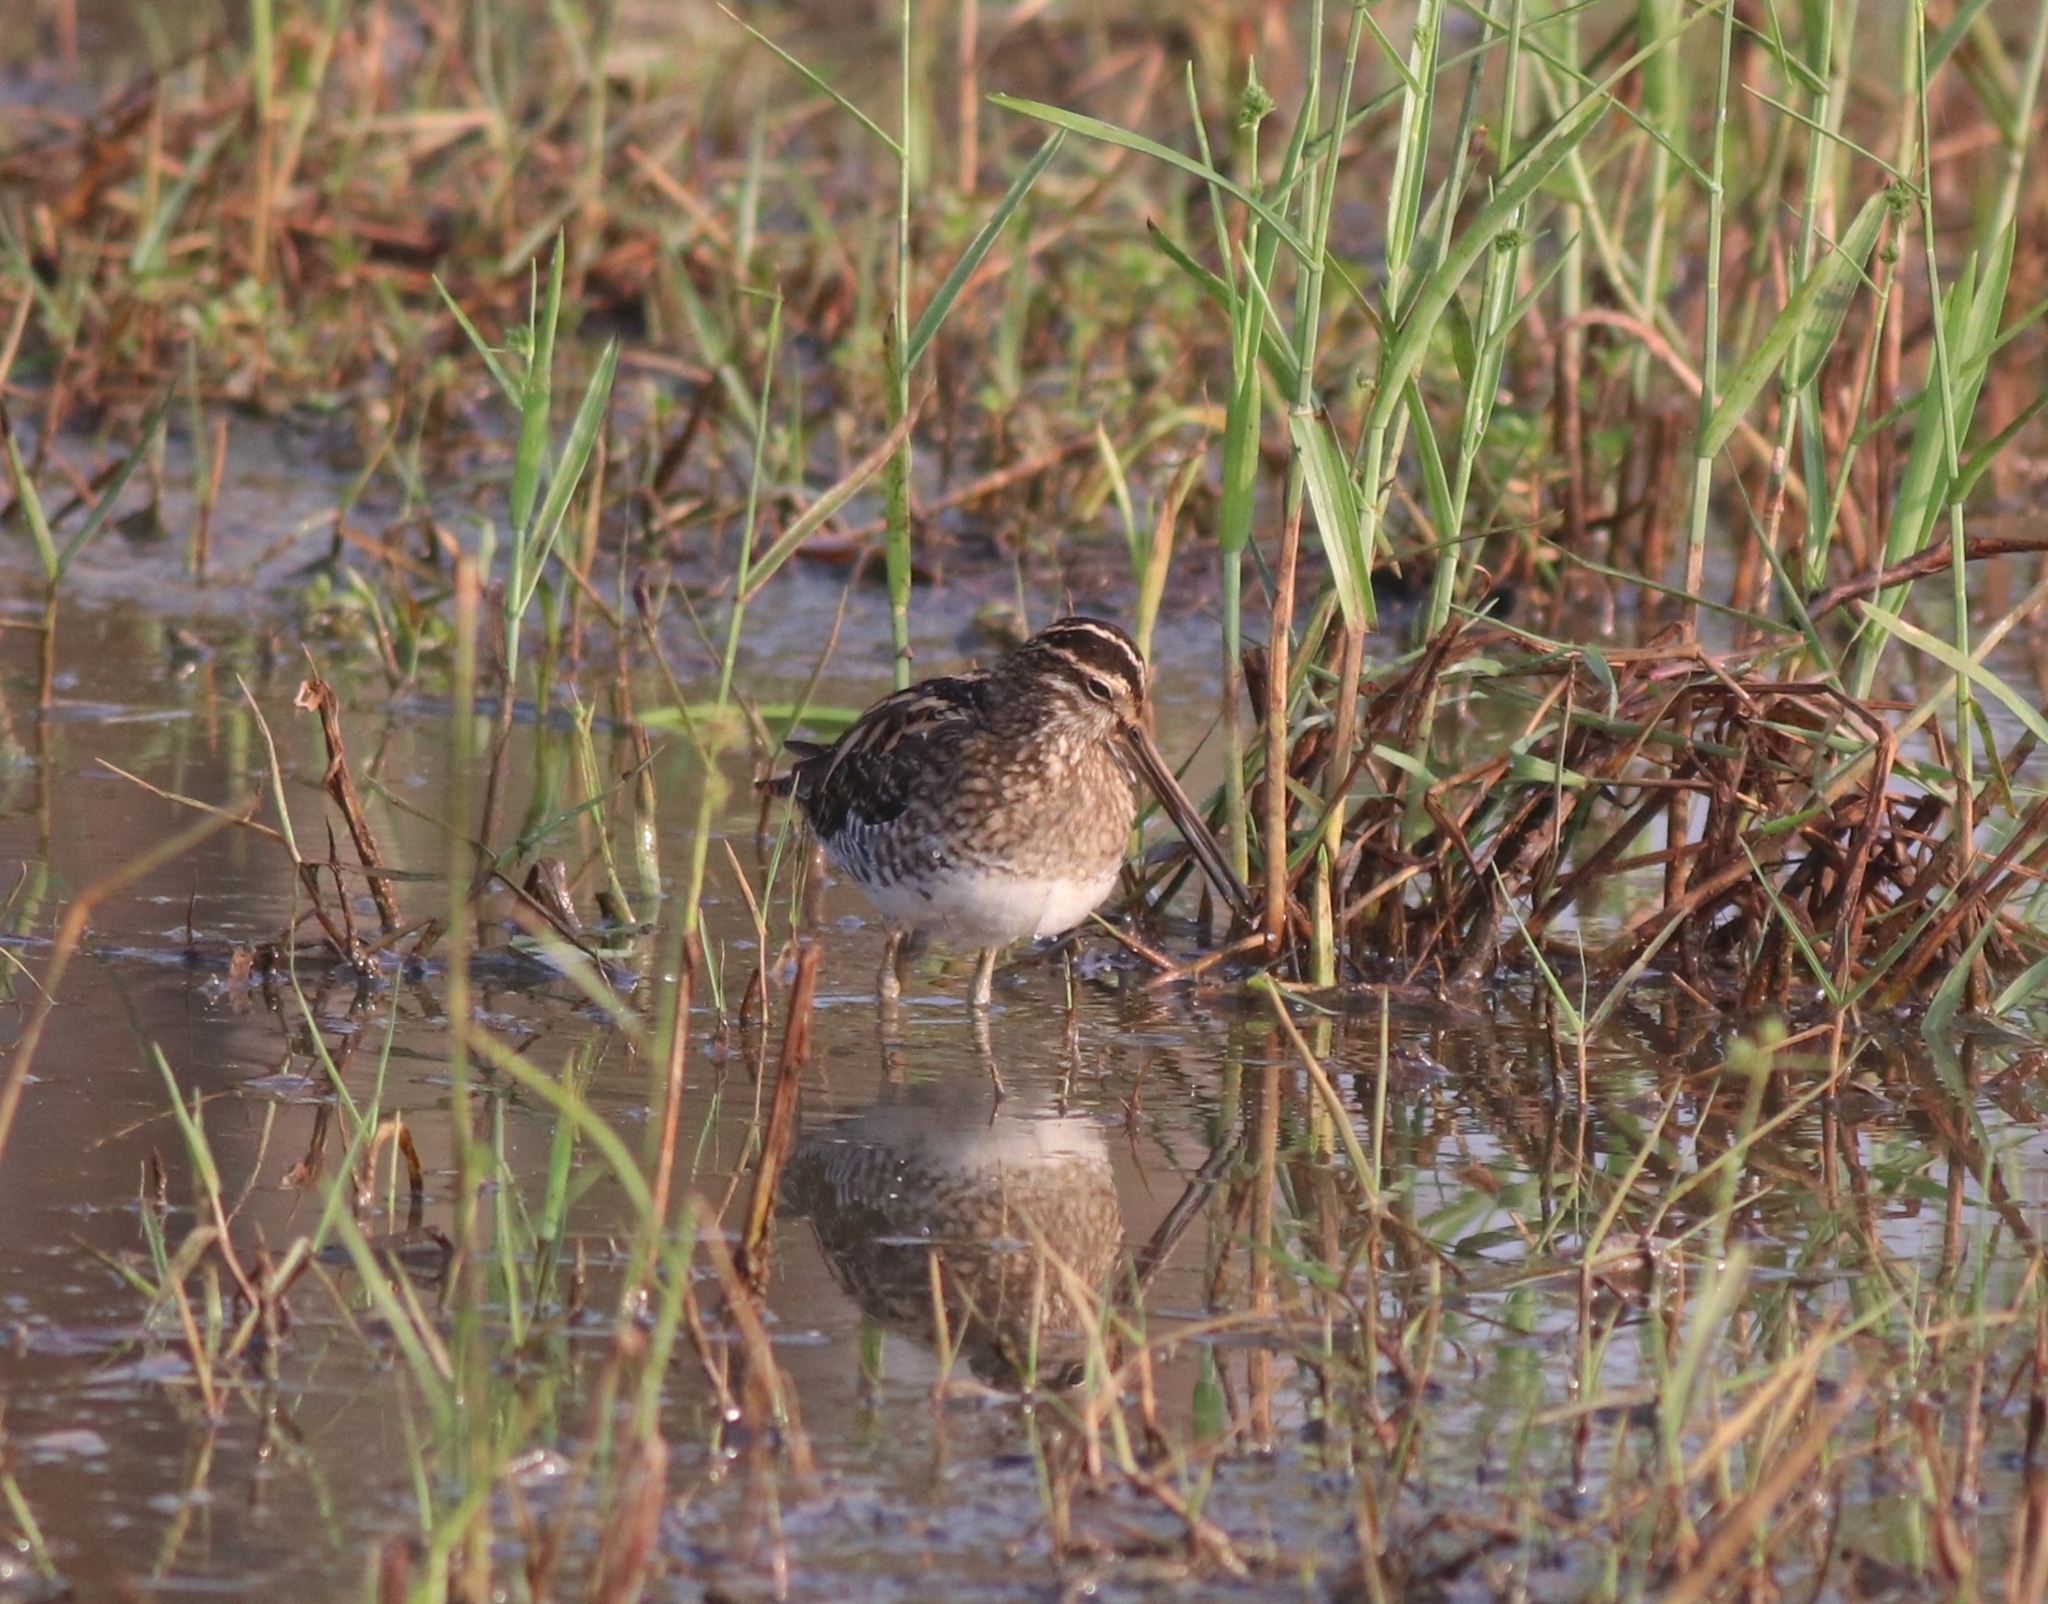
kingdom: Animalia
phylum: Chordata
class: Aves
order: Charadriiformes
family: Scolopacidae
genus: Gallinago
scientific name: Gallinago gallinago
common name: Common snipe
